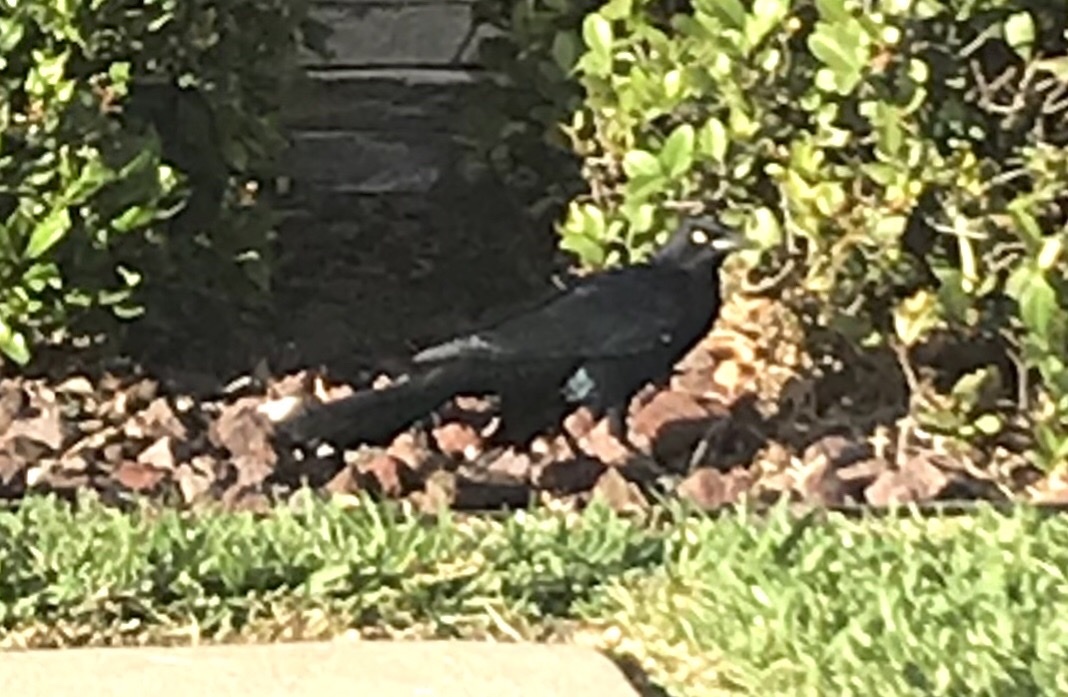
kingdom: Animalia
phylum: Chordata
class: Aves
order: Passeriformes
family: Icteridae
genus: Quiscalus
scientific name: Quiscalus mexicanus
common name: Great-tailed grackle
